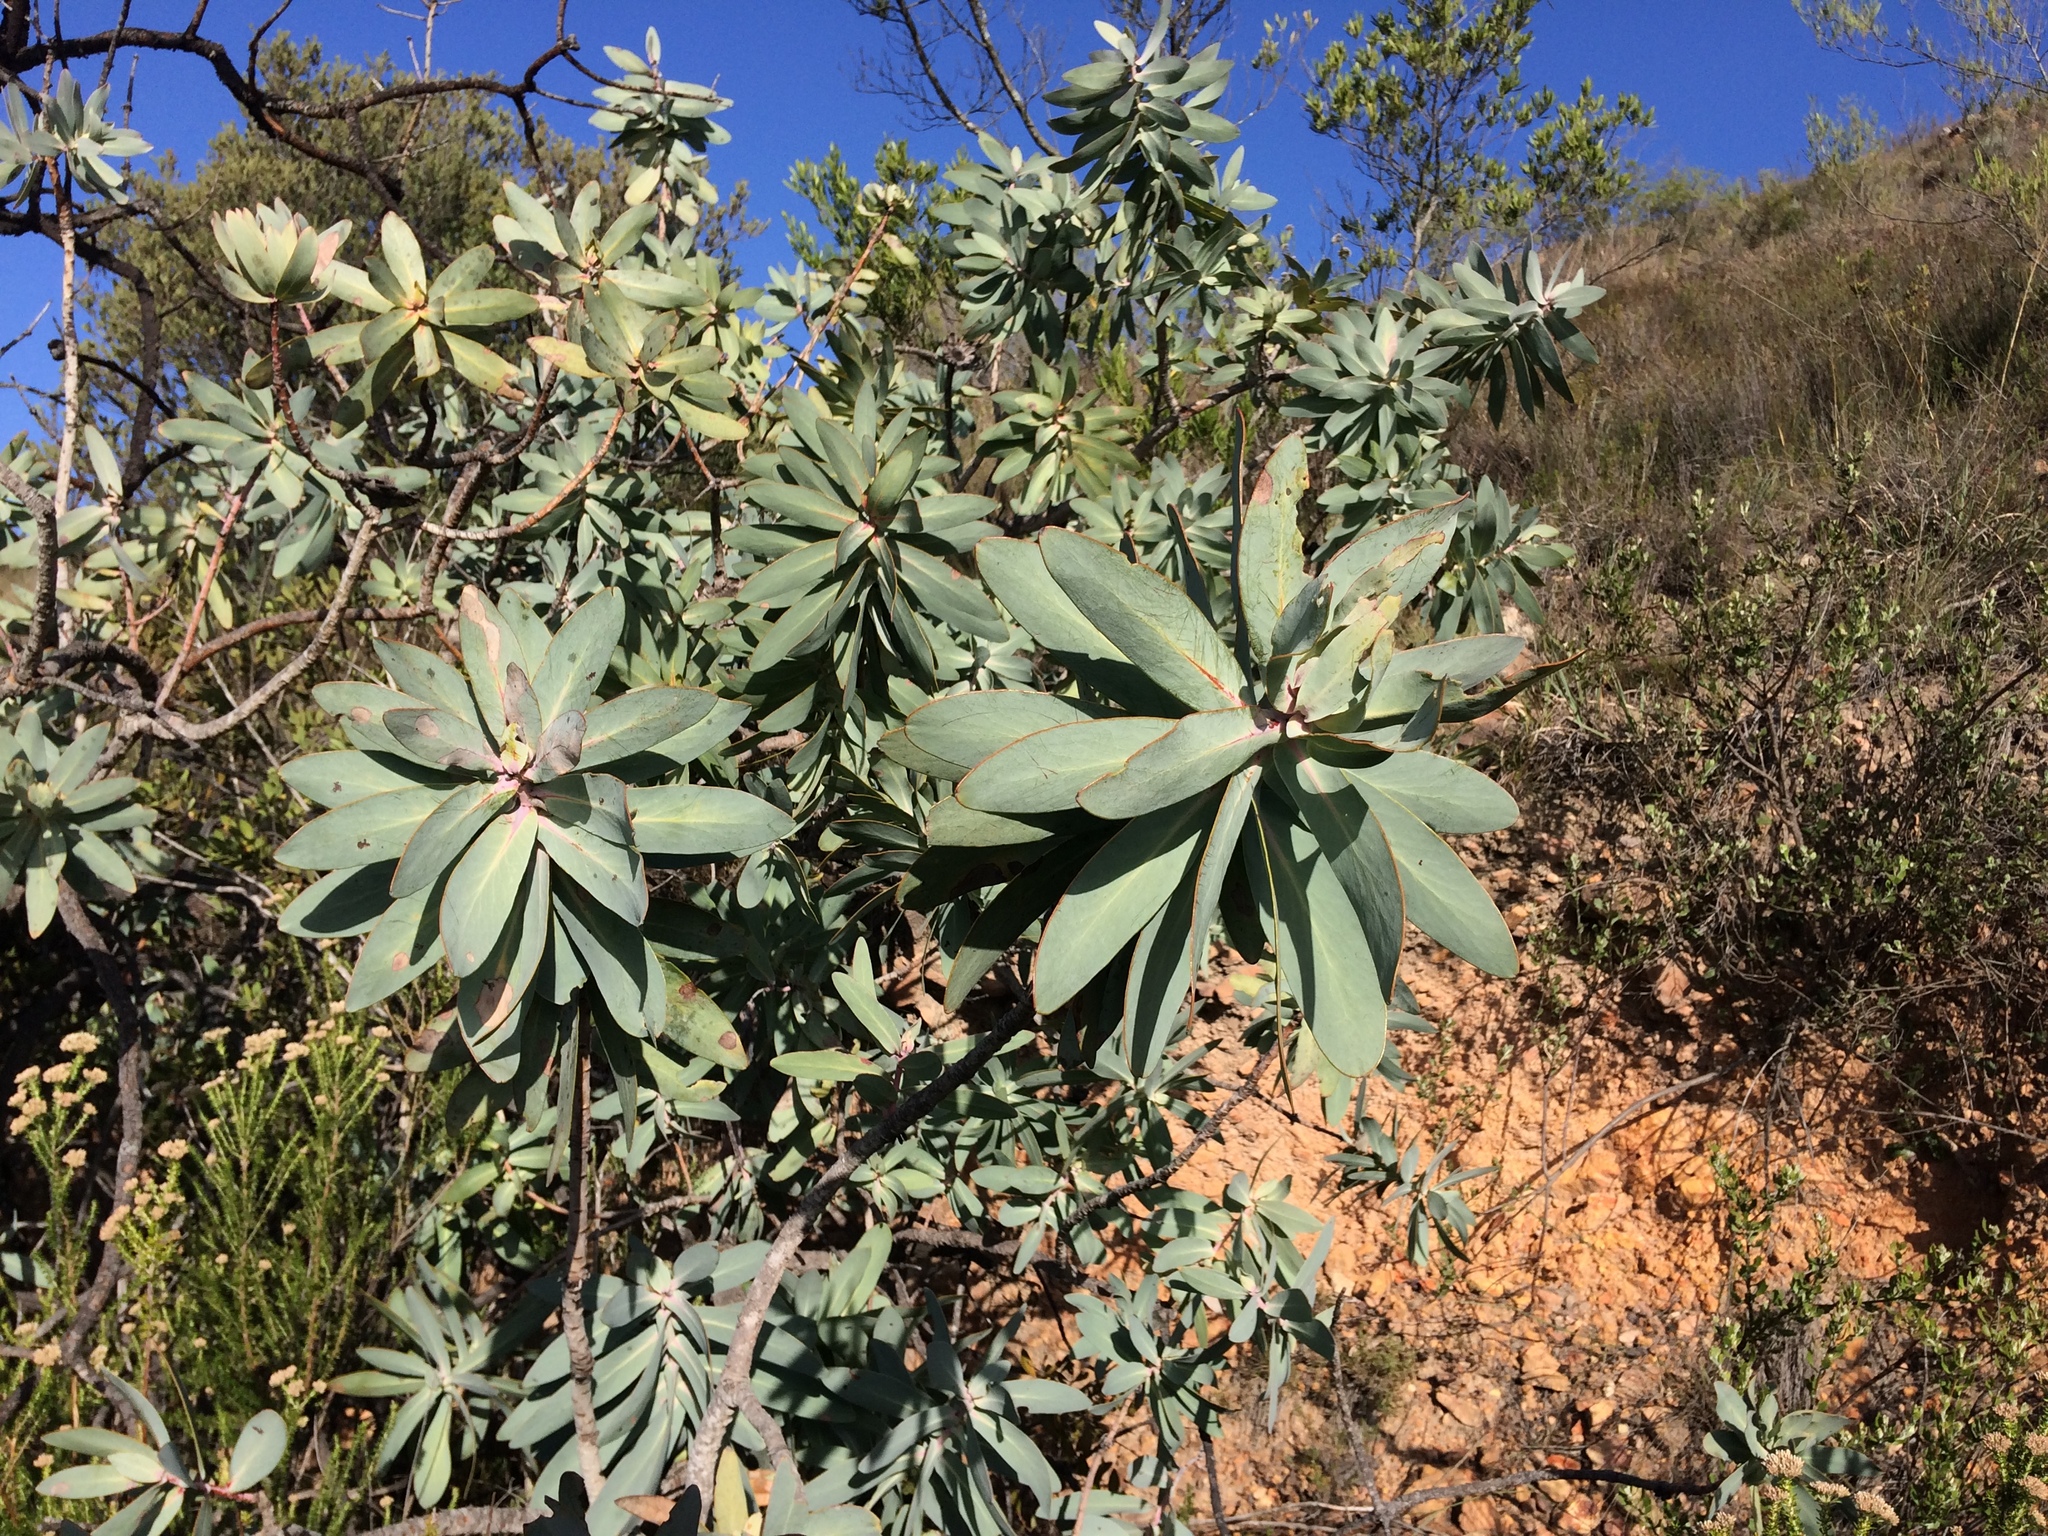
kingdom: Plantae
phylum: Tracheophyta
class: Magnoliopsida
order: Proteales
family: Proteaceae
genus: Protea
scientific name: Protea nitida
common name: Tree protea
